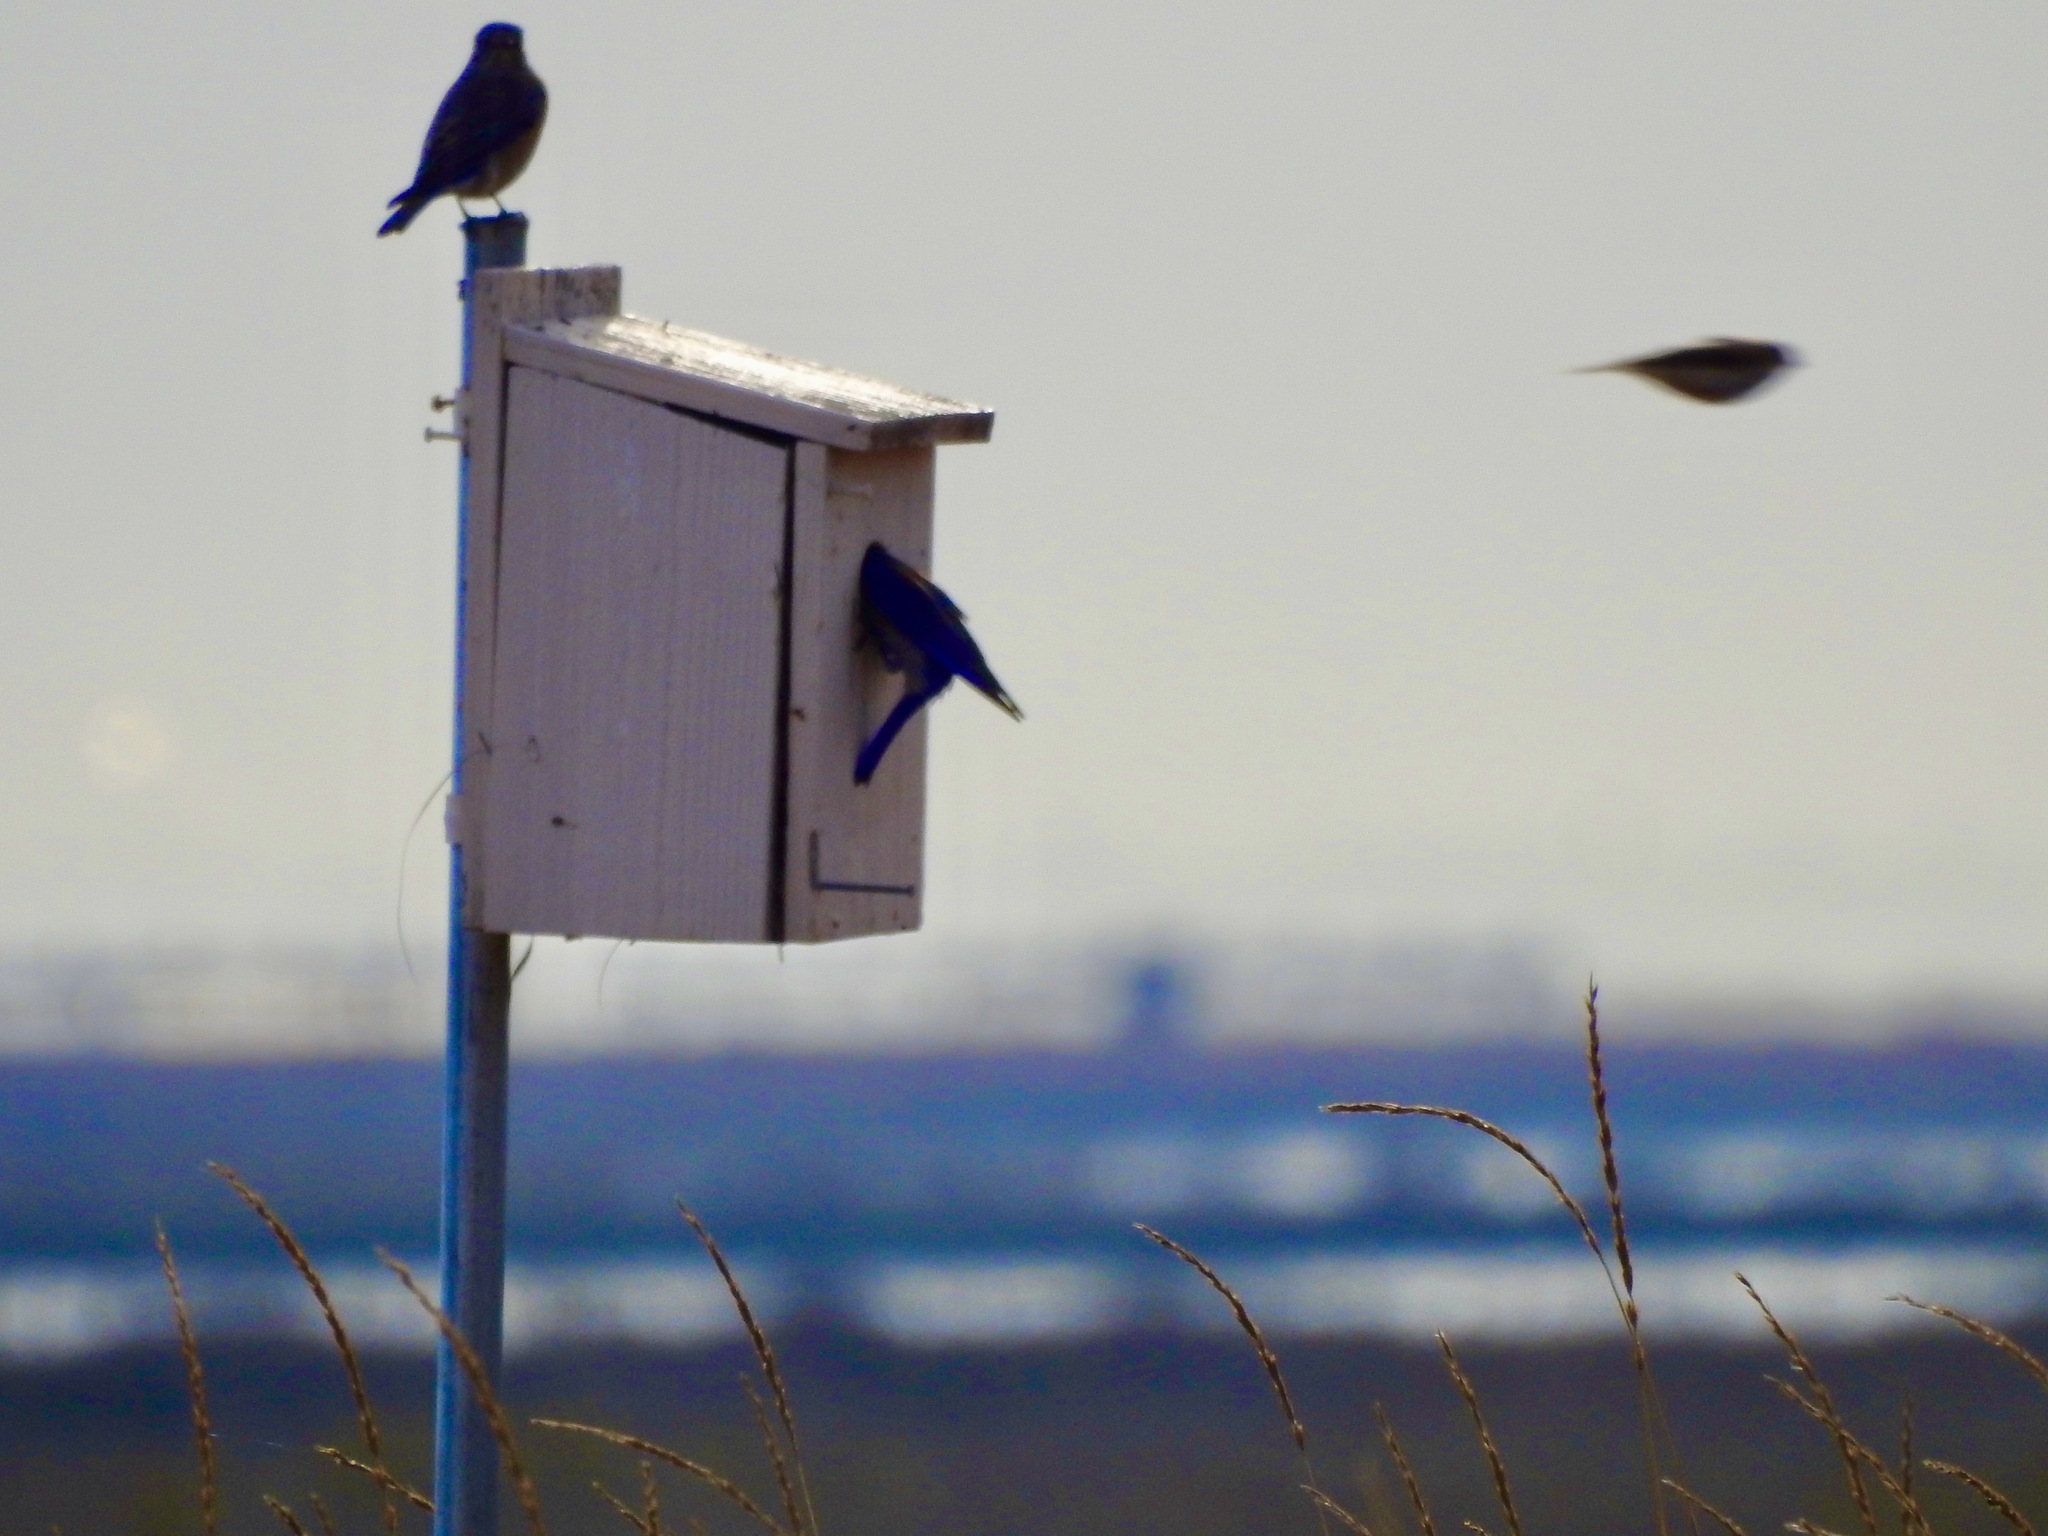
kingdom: Animalia
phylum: Chordata
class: Aves
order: Passeriformes
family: Turdidae
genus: Sialia
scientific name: Sialia mexicana
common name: Western bluebird
